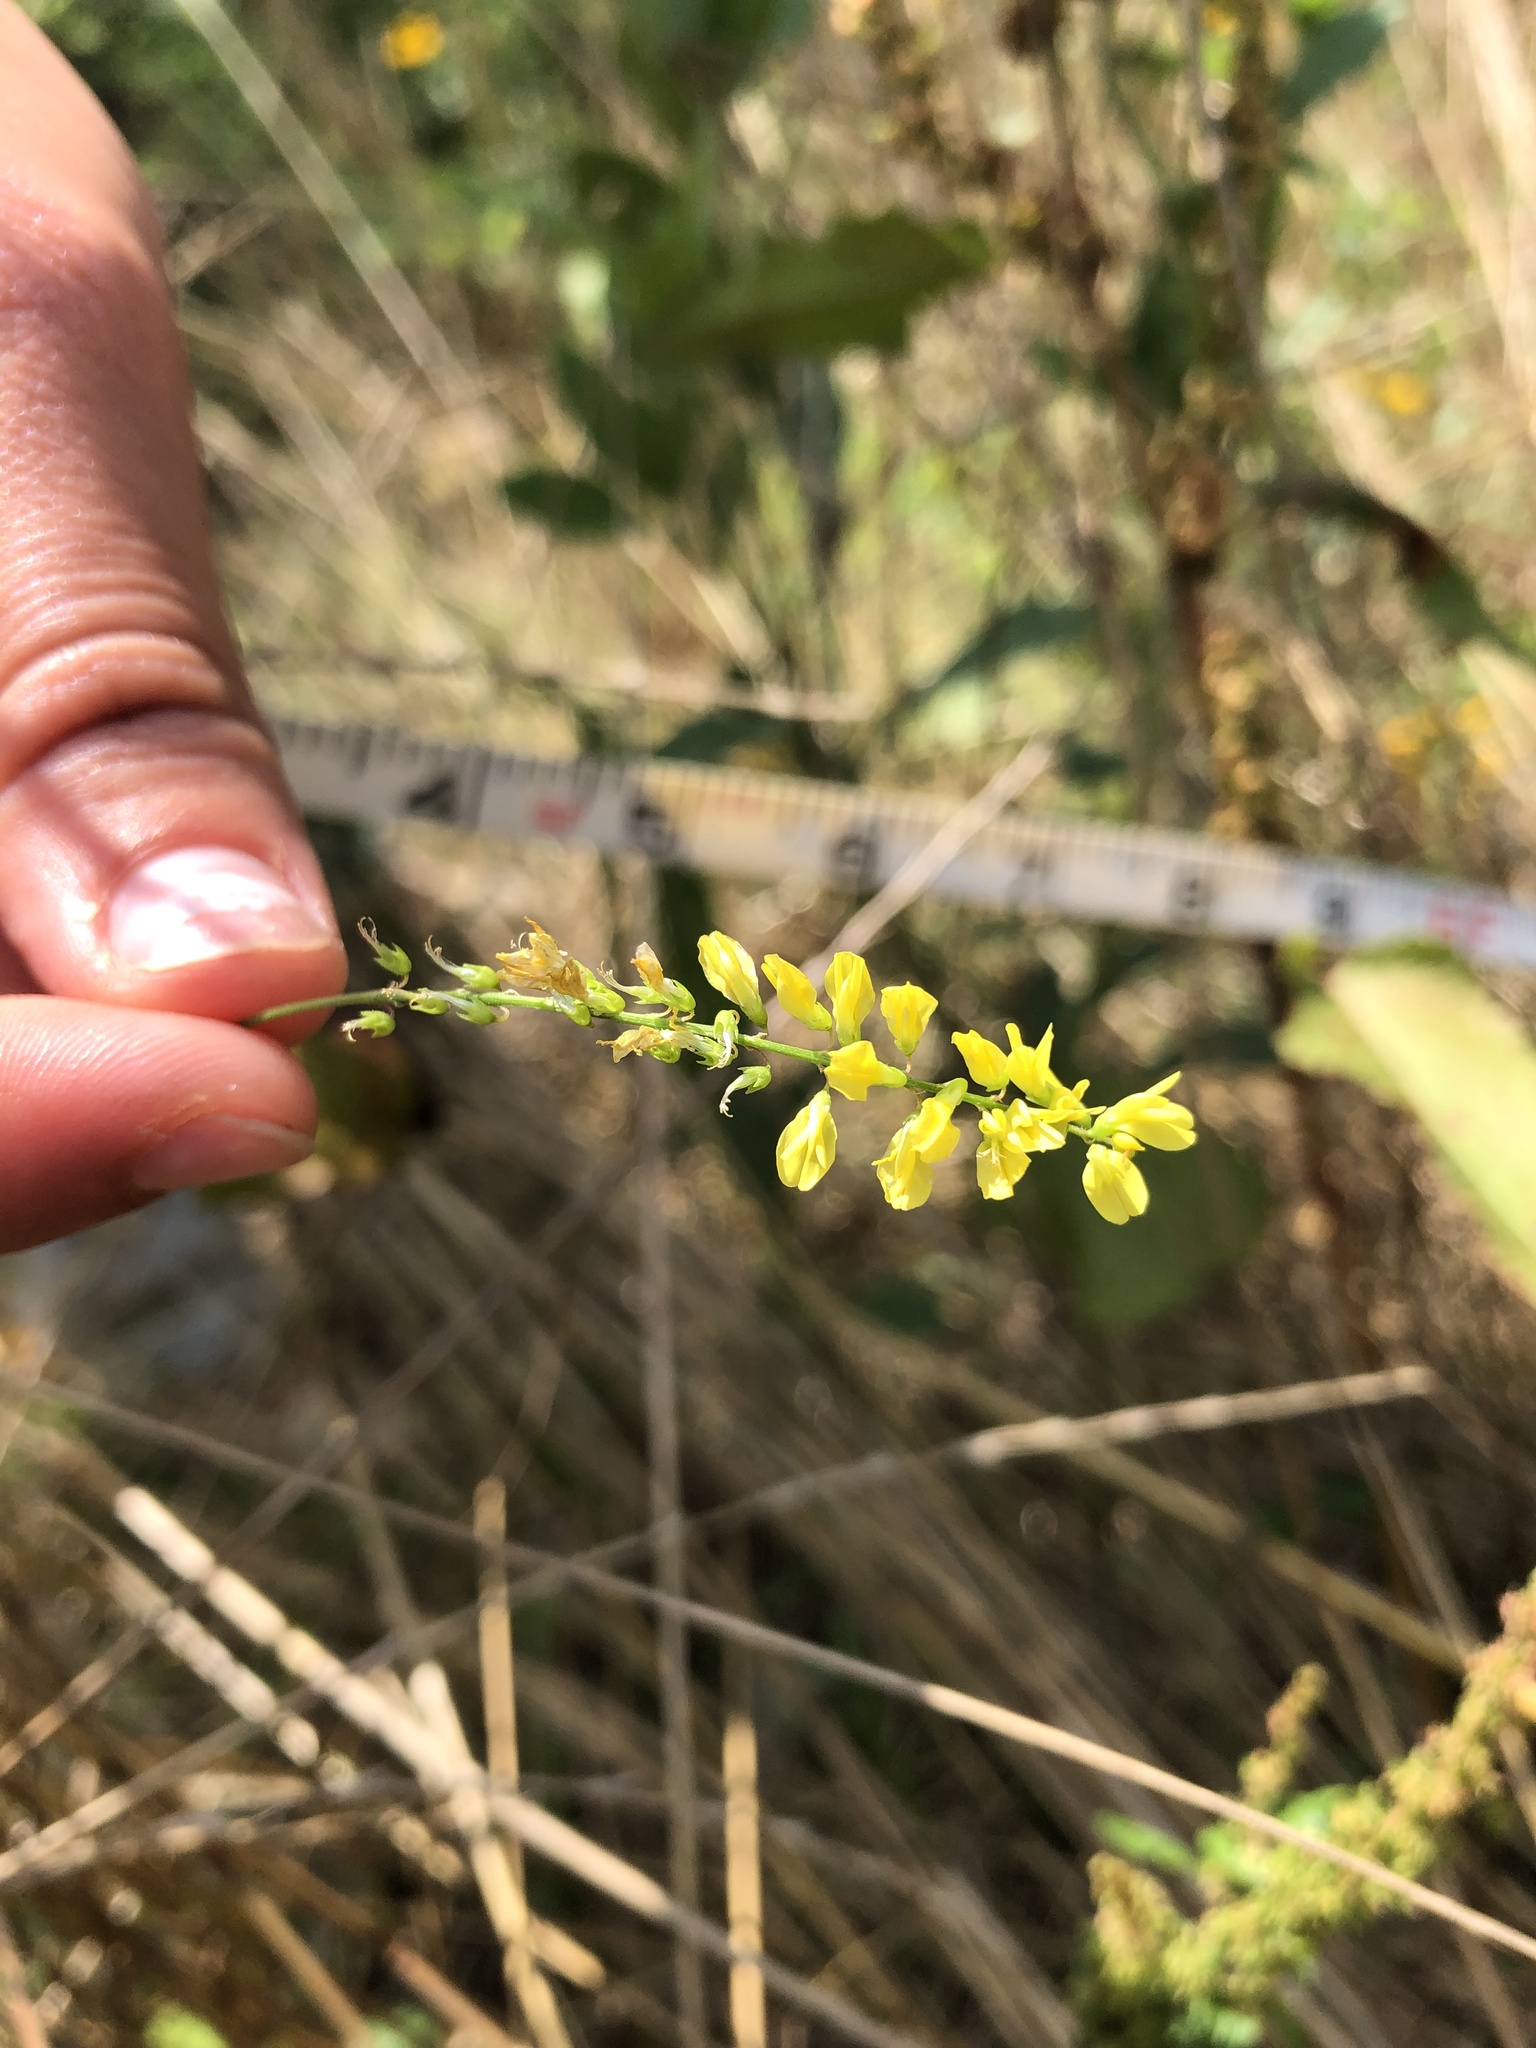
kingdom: Plantae
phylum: Tracheophyta
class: Magnoliopsida
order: Fabales
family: Fabaceae
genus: Melilotus
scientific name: Melilotus officinalis
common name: Sweetclover
